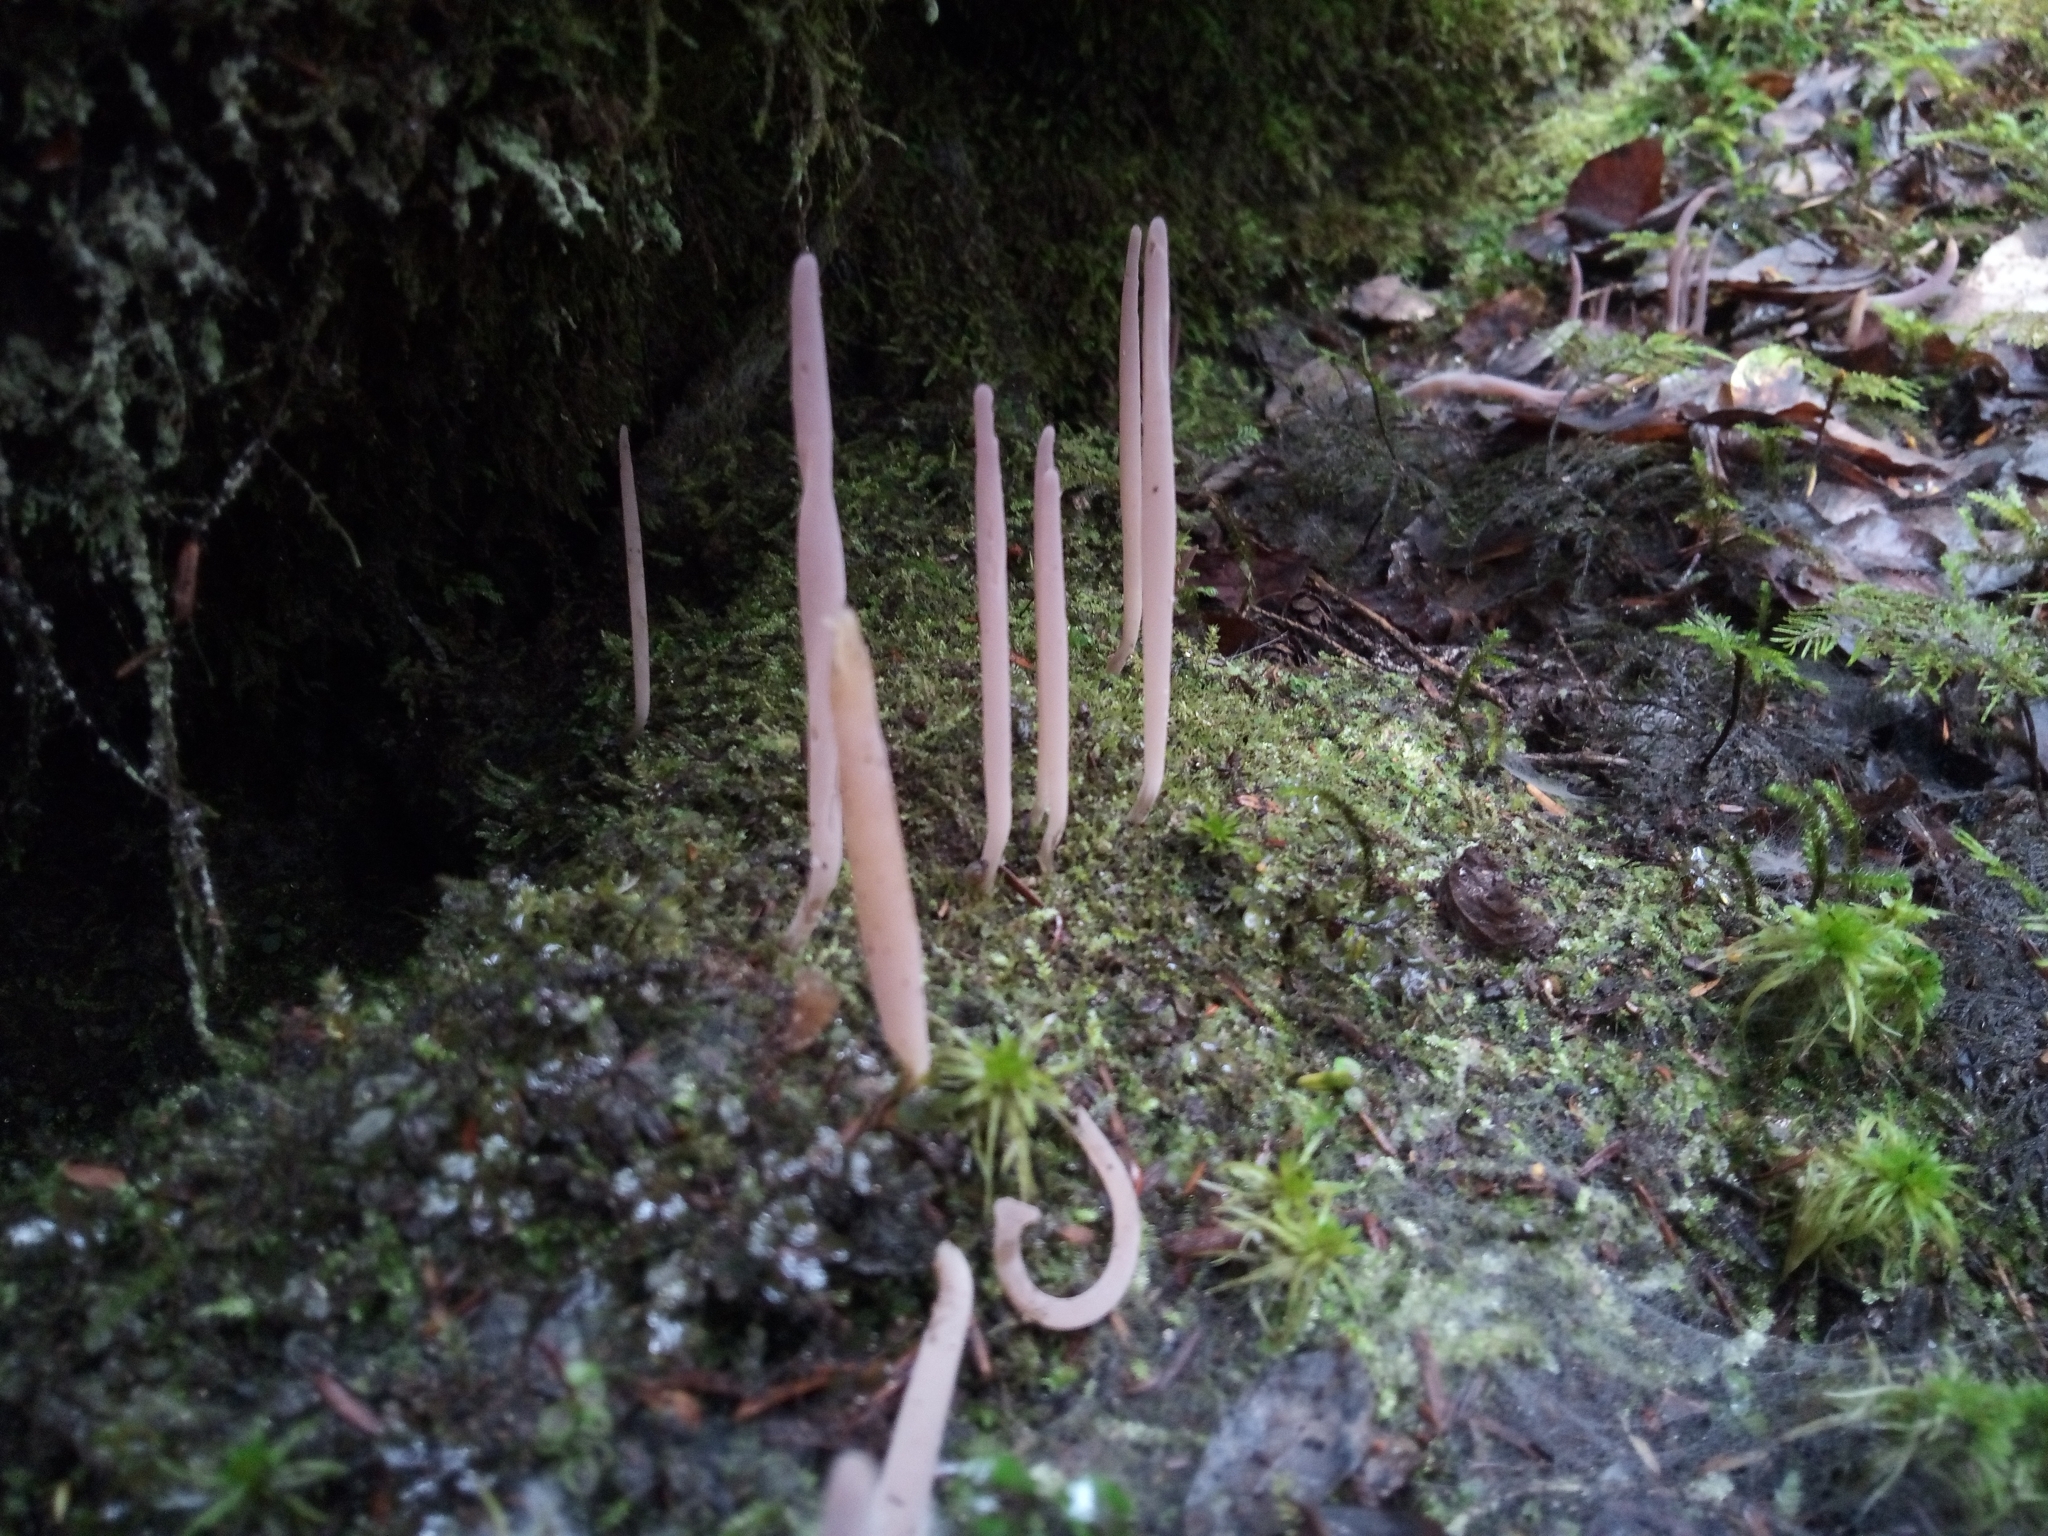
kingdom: Fungi
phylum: Basidiomycota
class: Agaricomycetes
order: Hymenochaetales
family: Rickenellaceae
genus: Alloclavaria
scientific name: Alloclavaria purpurea
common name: Purple spindles
